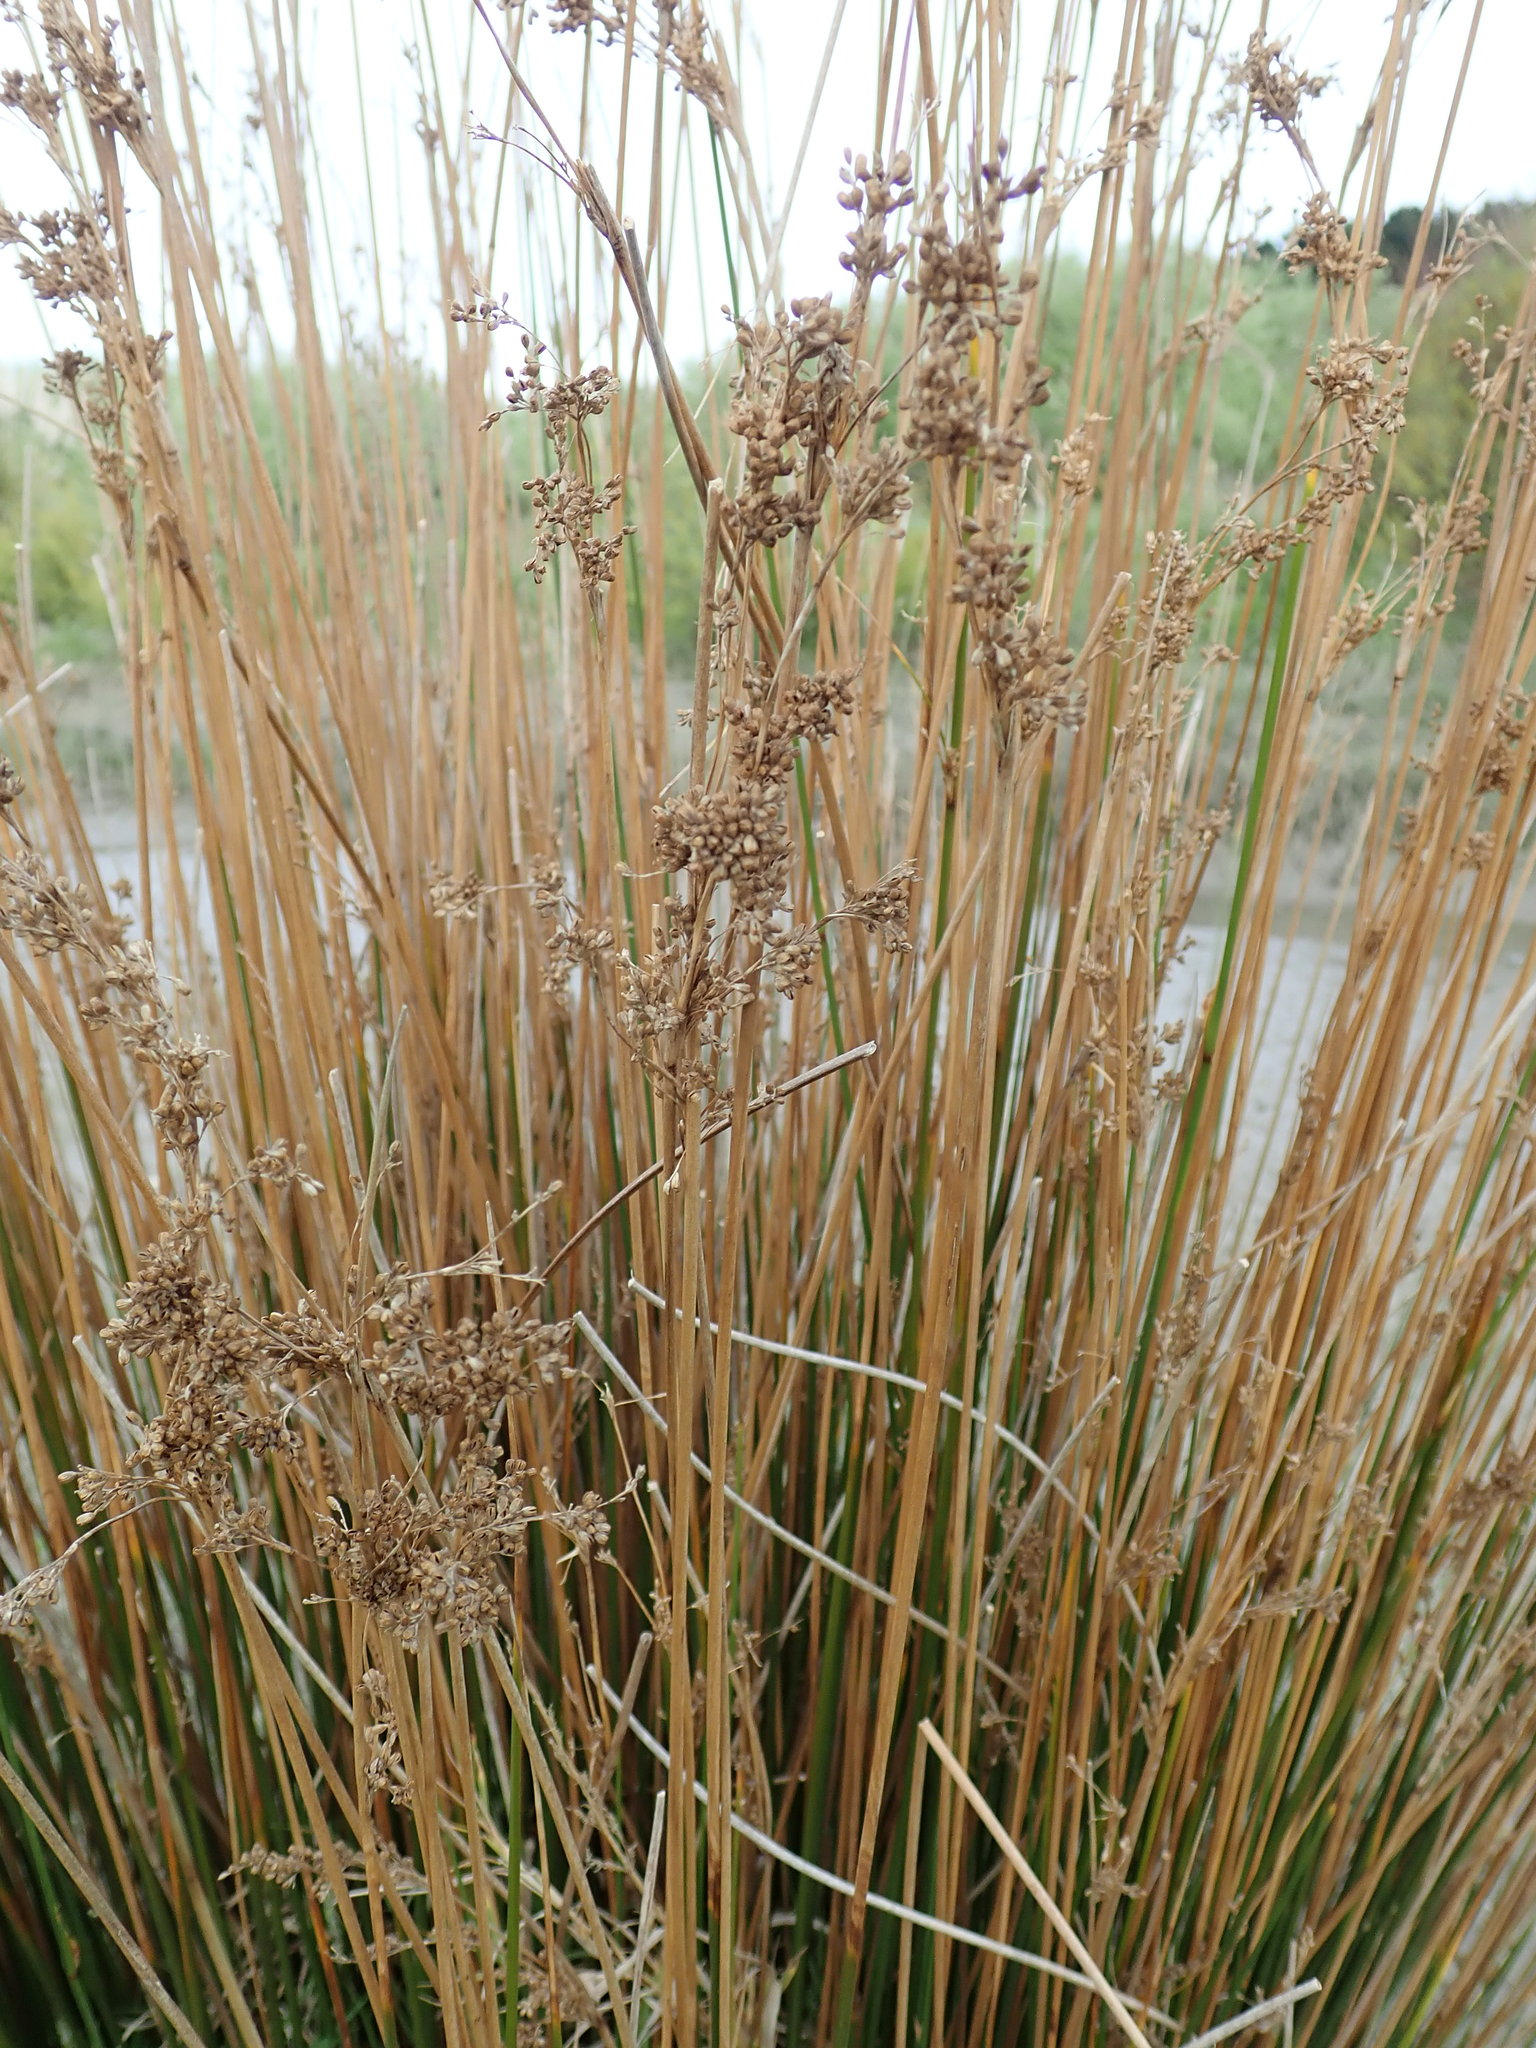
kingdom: Plantae
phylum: Tracheophyta
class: Liliopsida
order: Poales
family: Juncaceae
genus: Juncus
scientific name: Juncus sarophorus
